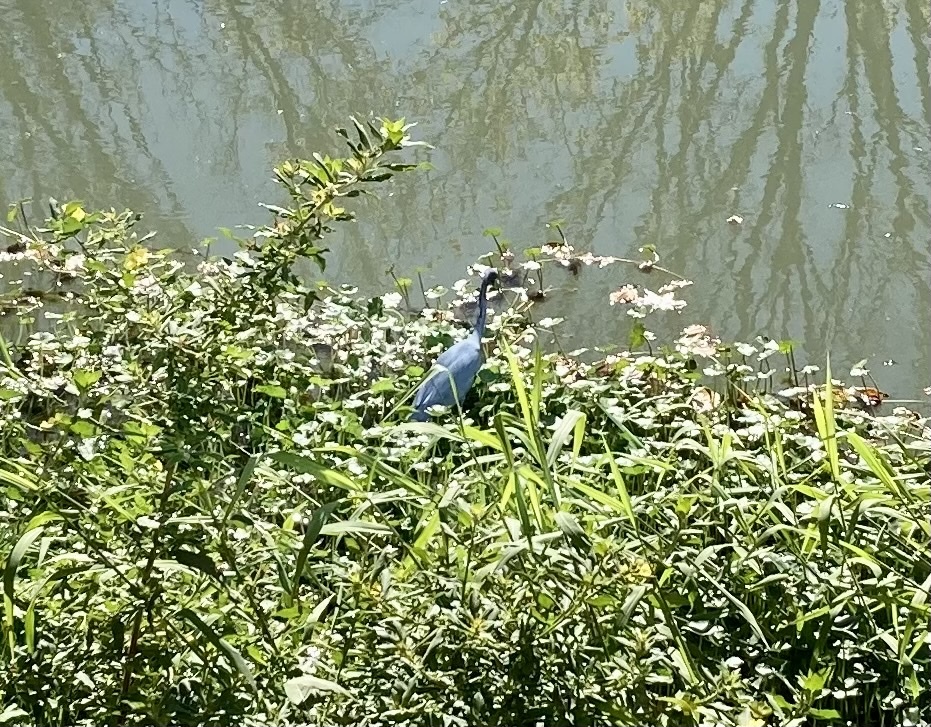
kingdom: Animalia
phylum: Chordata
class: Aves
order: Pelecaniformes
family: Ardeidae
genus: Egretta
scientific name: Egretta caerulea
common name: Little blue heron
